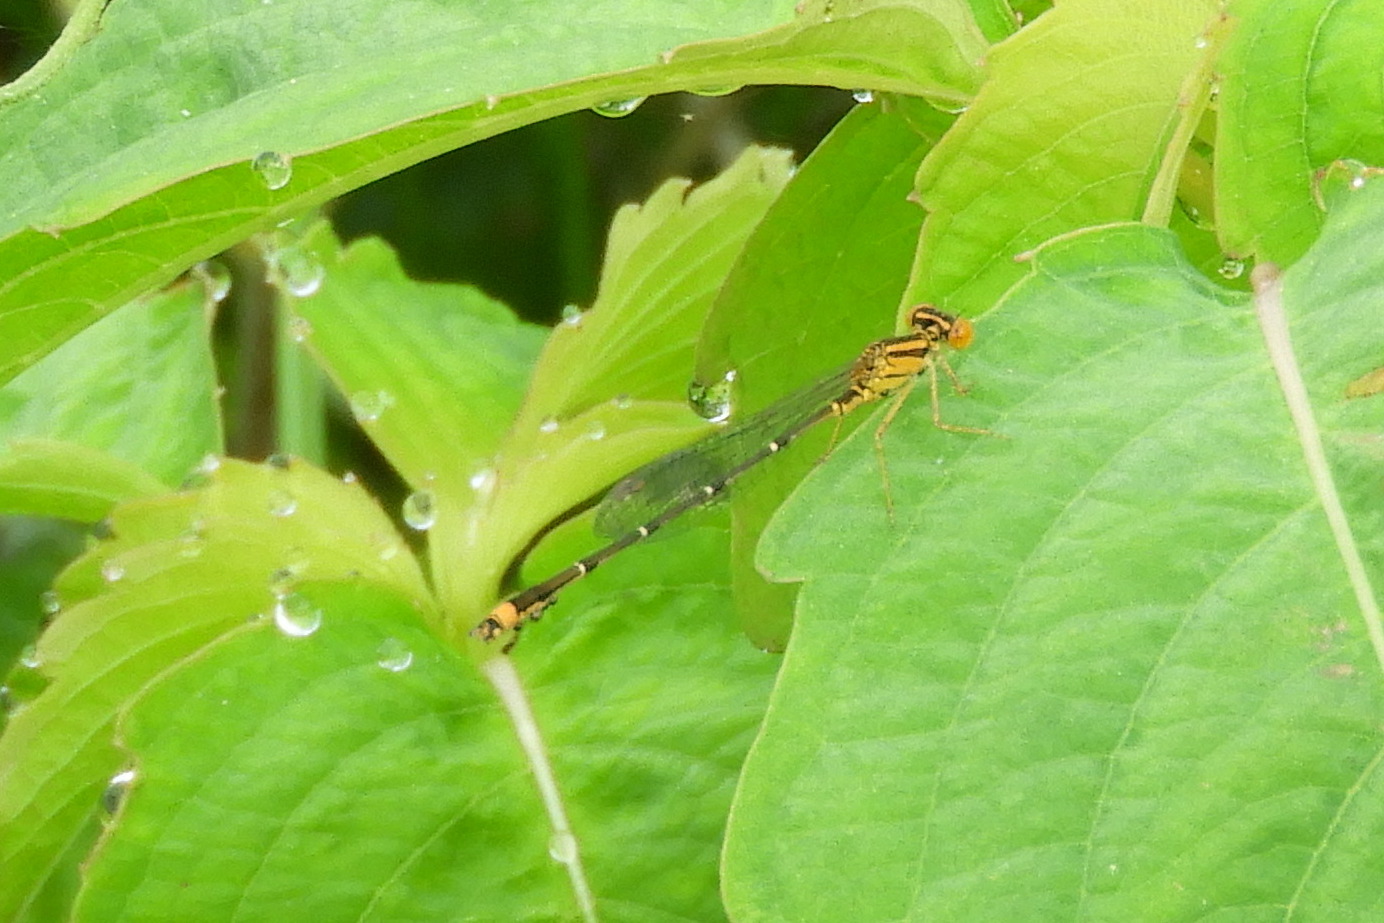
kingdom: Animalia
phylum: Arthropoda
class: Insecta
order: Odonata
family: Coenagrionidae
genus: Enallagma
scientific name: Enallagma signatum
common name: Orange bluet
